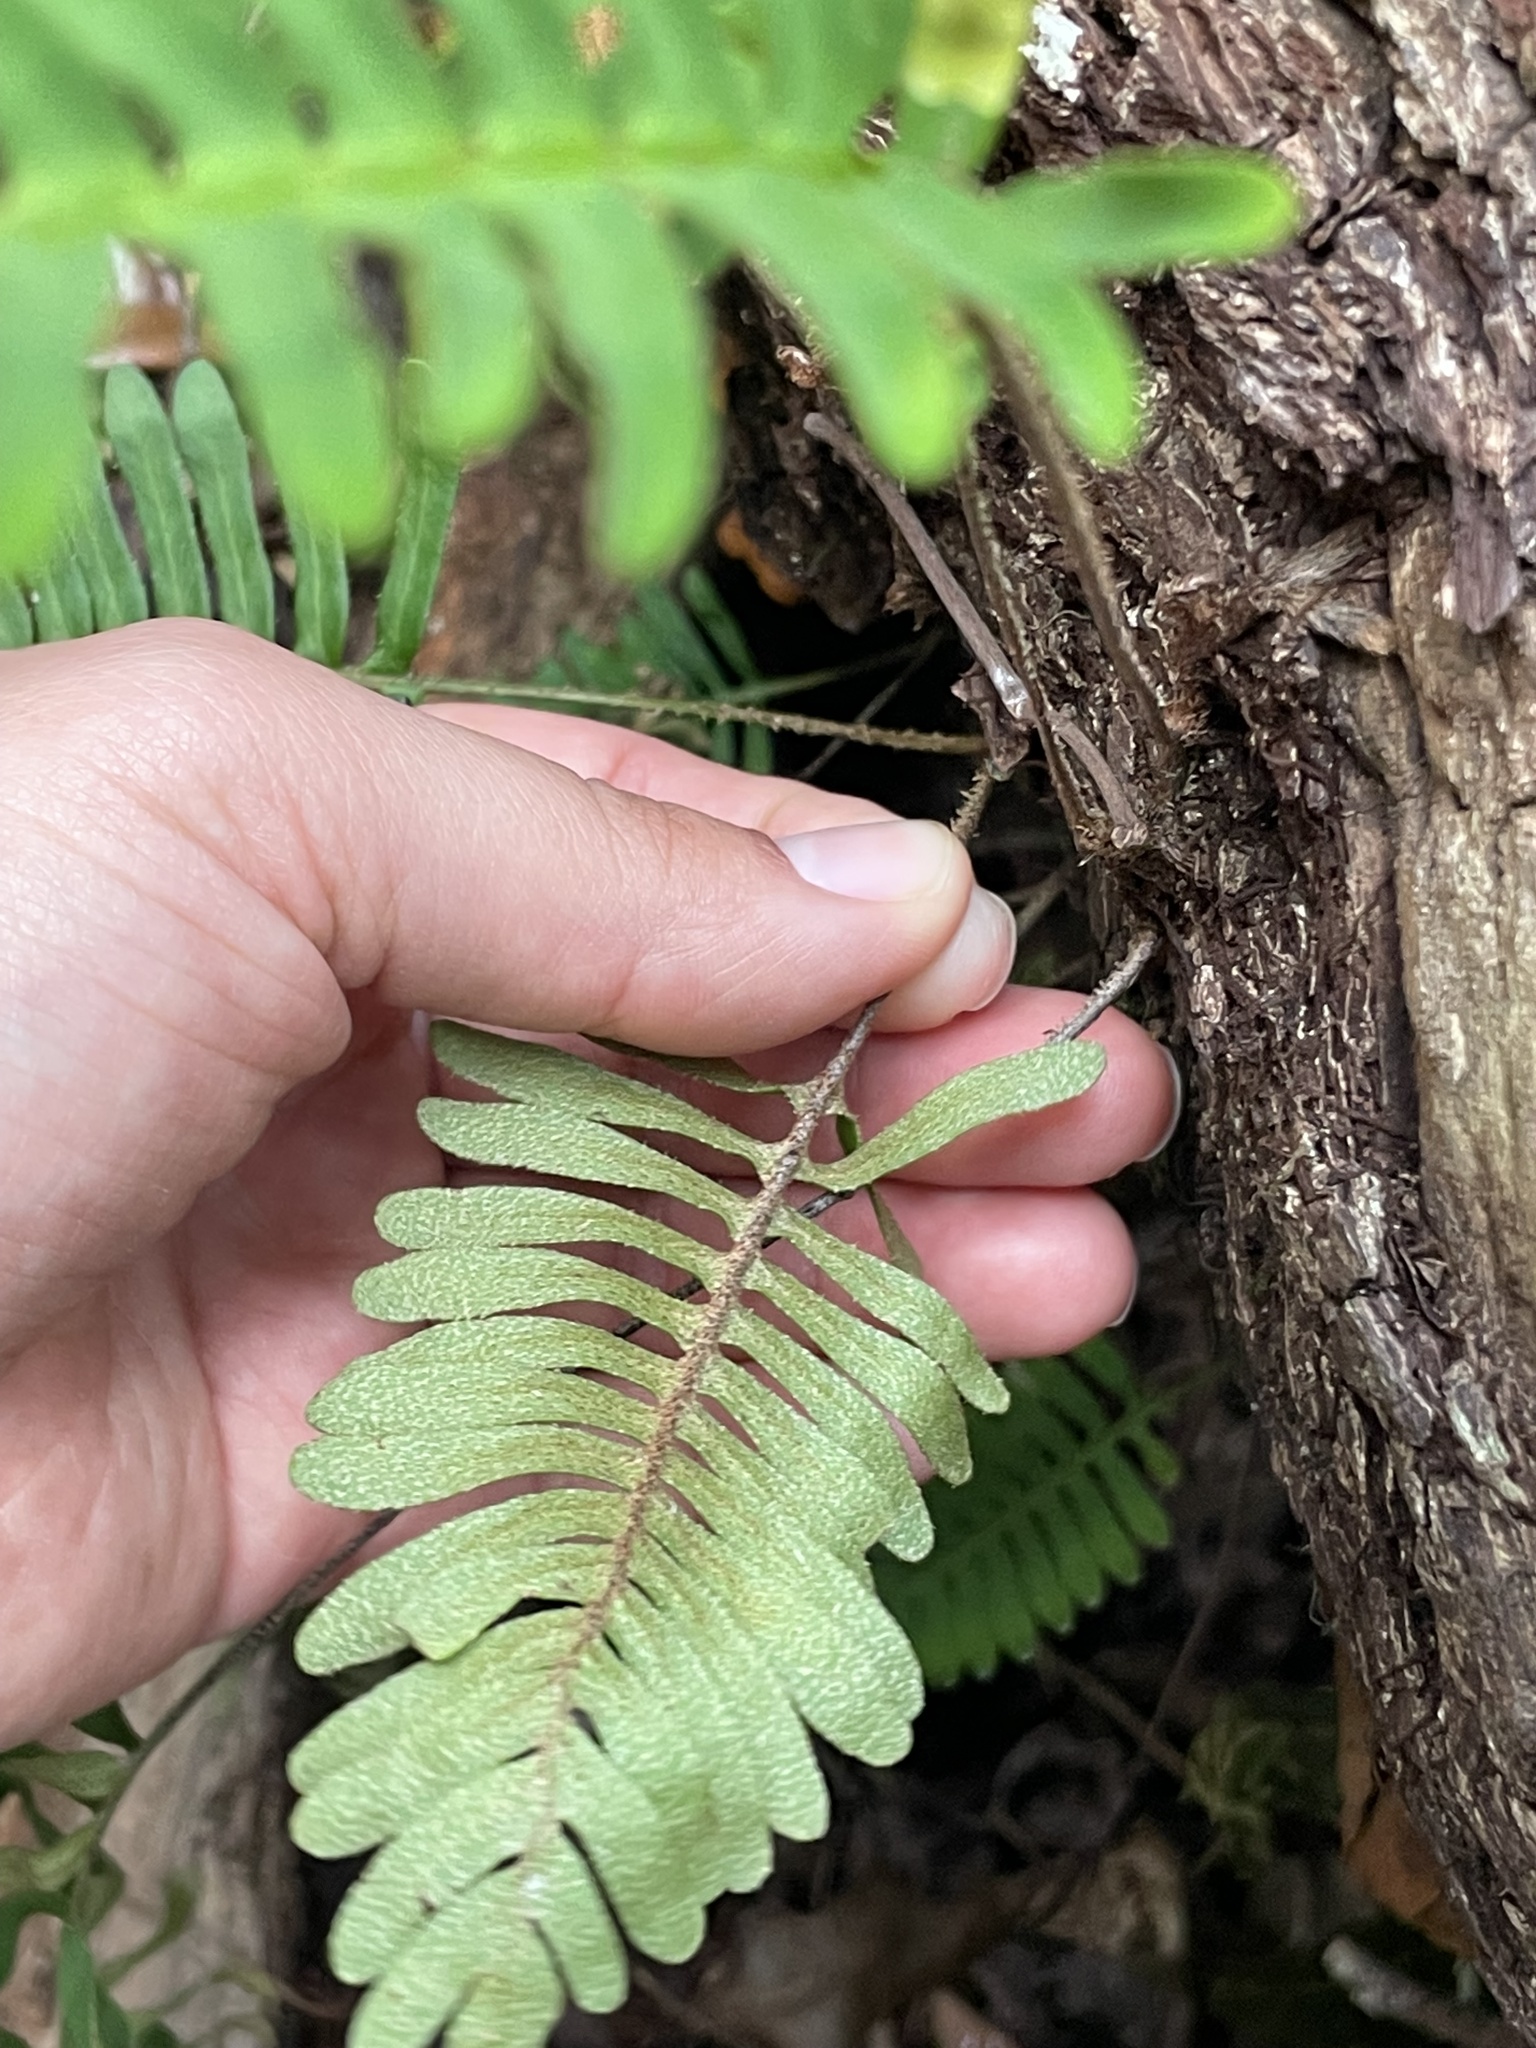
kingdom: Plantae
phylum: Tracheophyta
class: Polypodiopsida
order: Polypodiales
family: Polypodiaceae
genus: Pleopeltis
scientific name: Pleopeltis michauxiana
